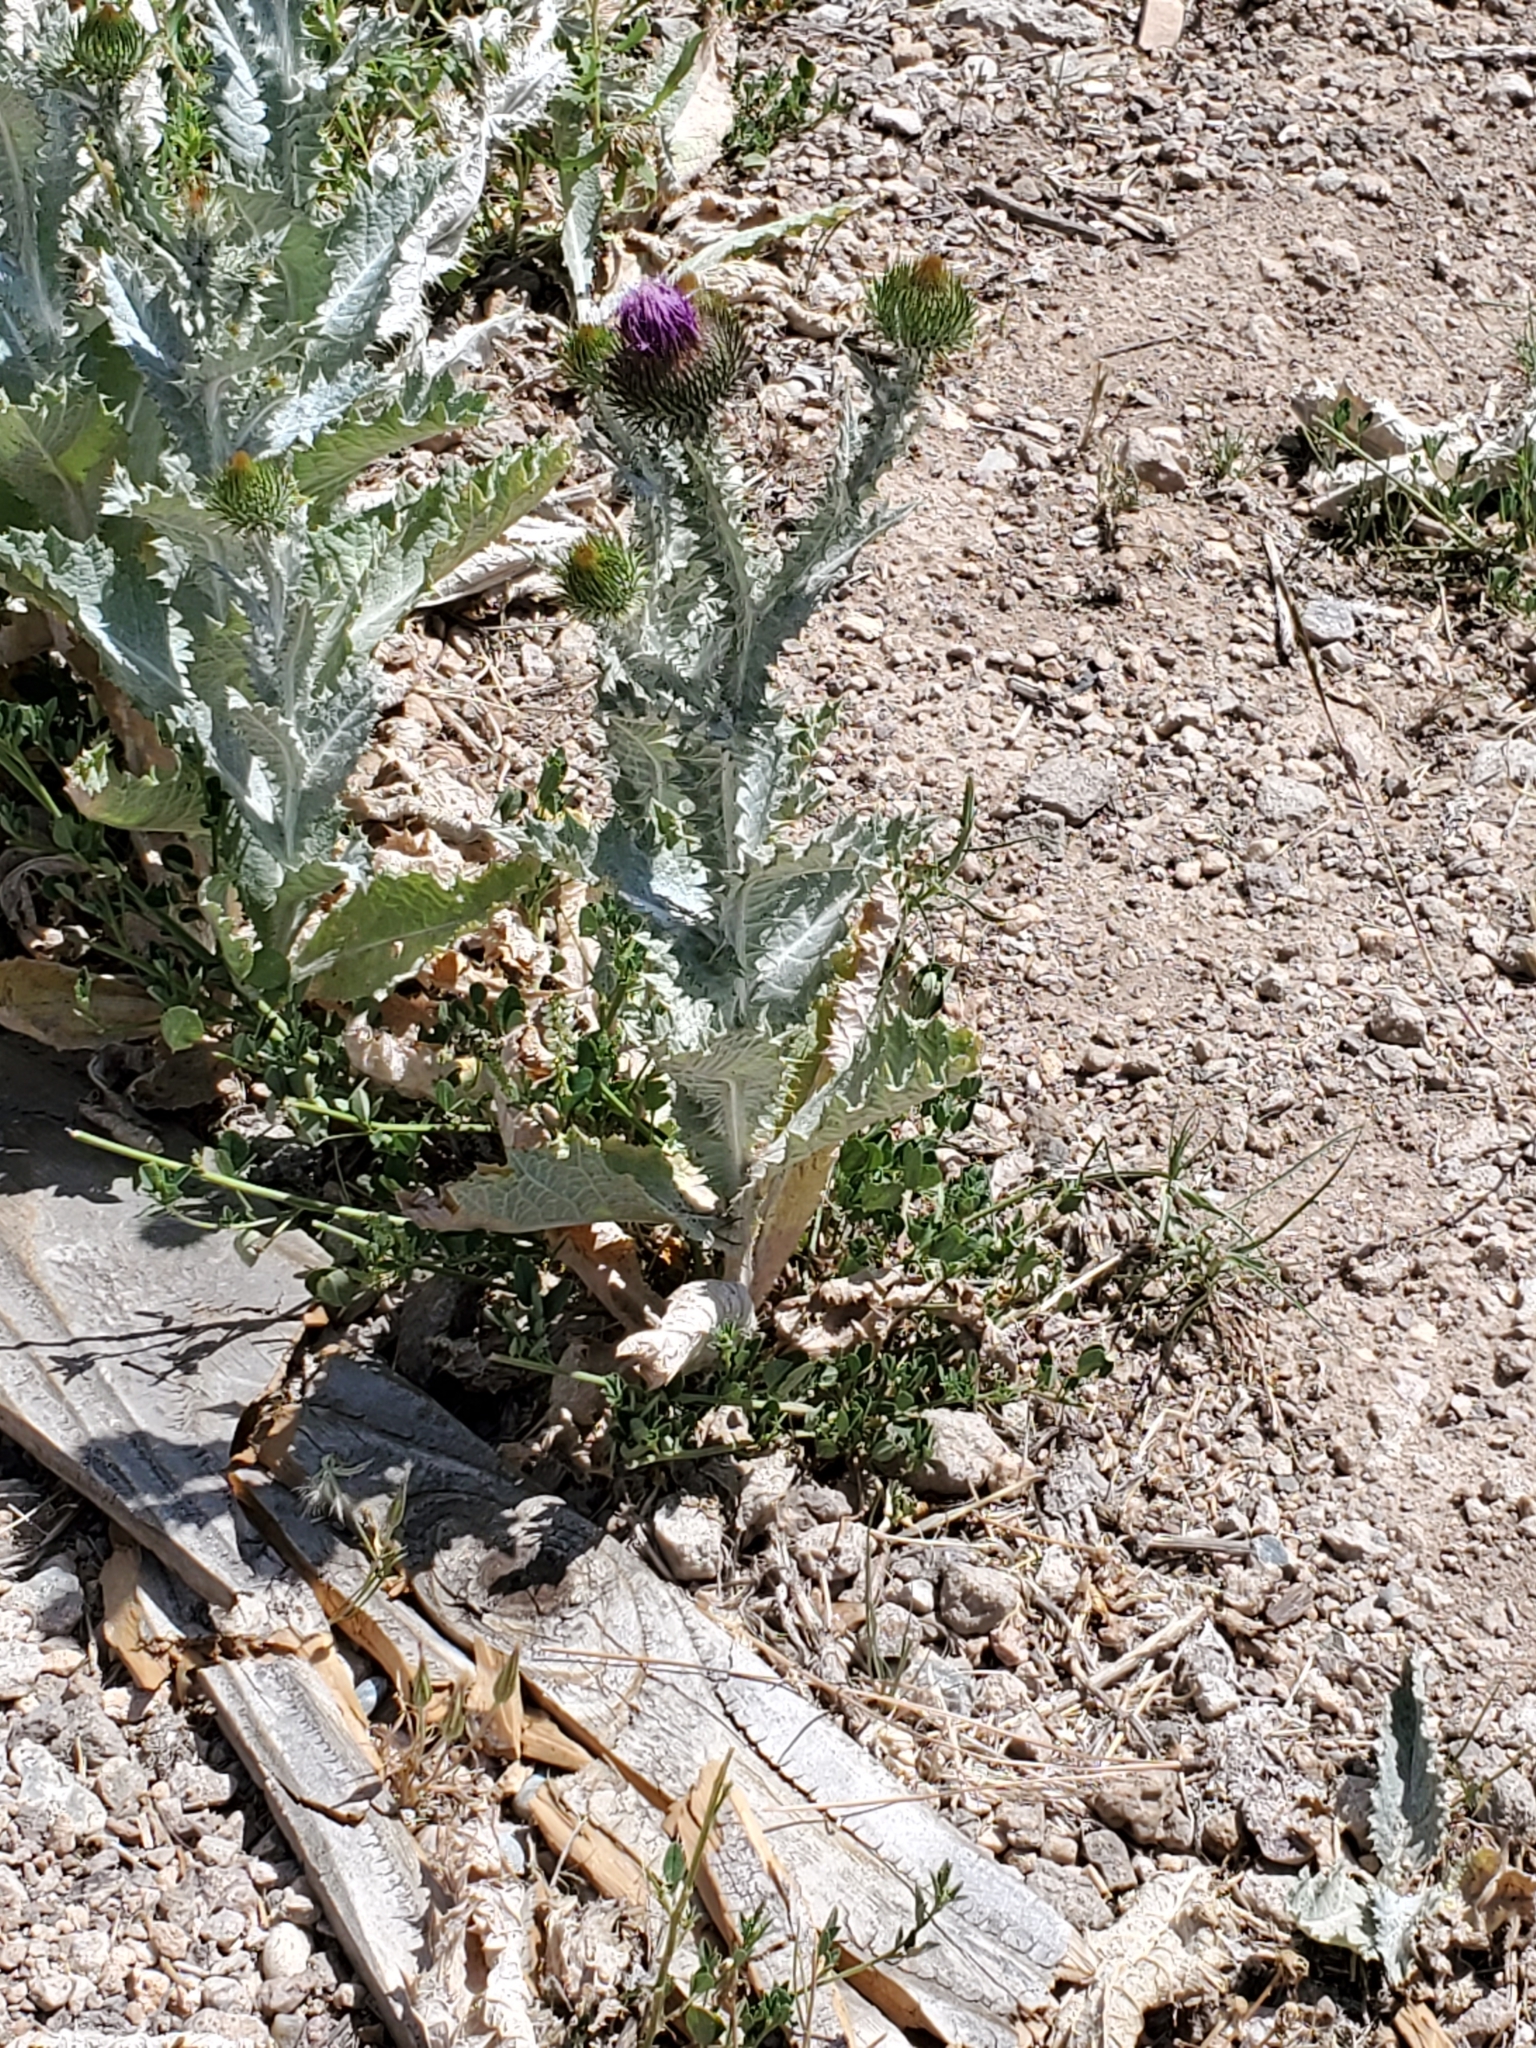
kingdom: Plantae
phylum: Tracheophyta
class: Magnoliopsida
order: Asterales
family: Asteraceae
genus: Onopordum
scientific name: Onopordum acanthium
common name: Scotch thistle
